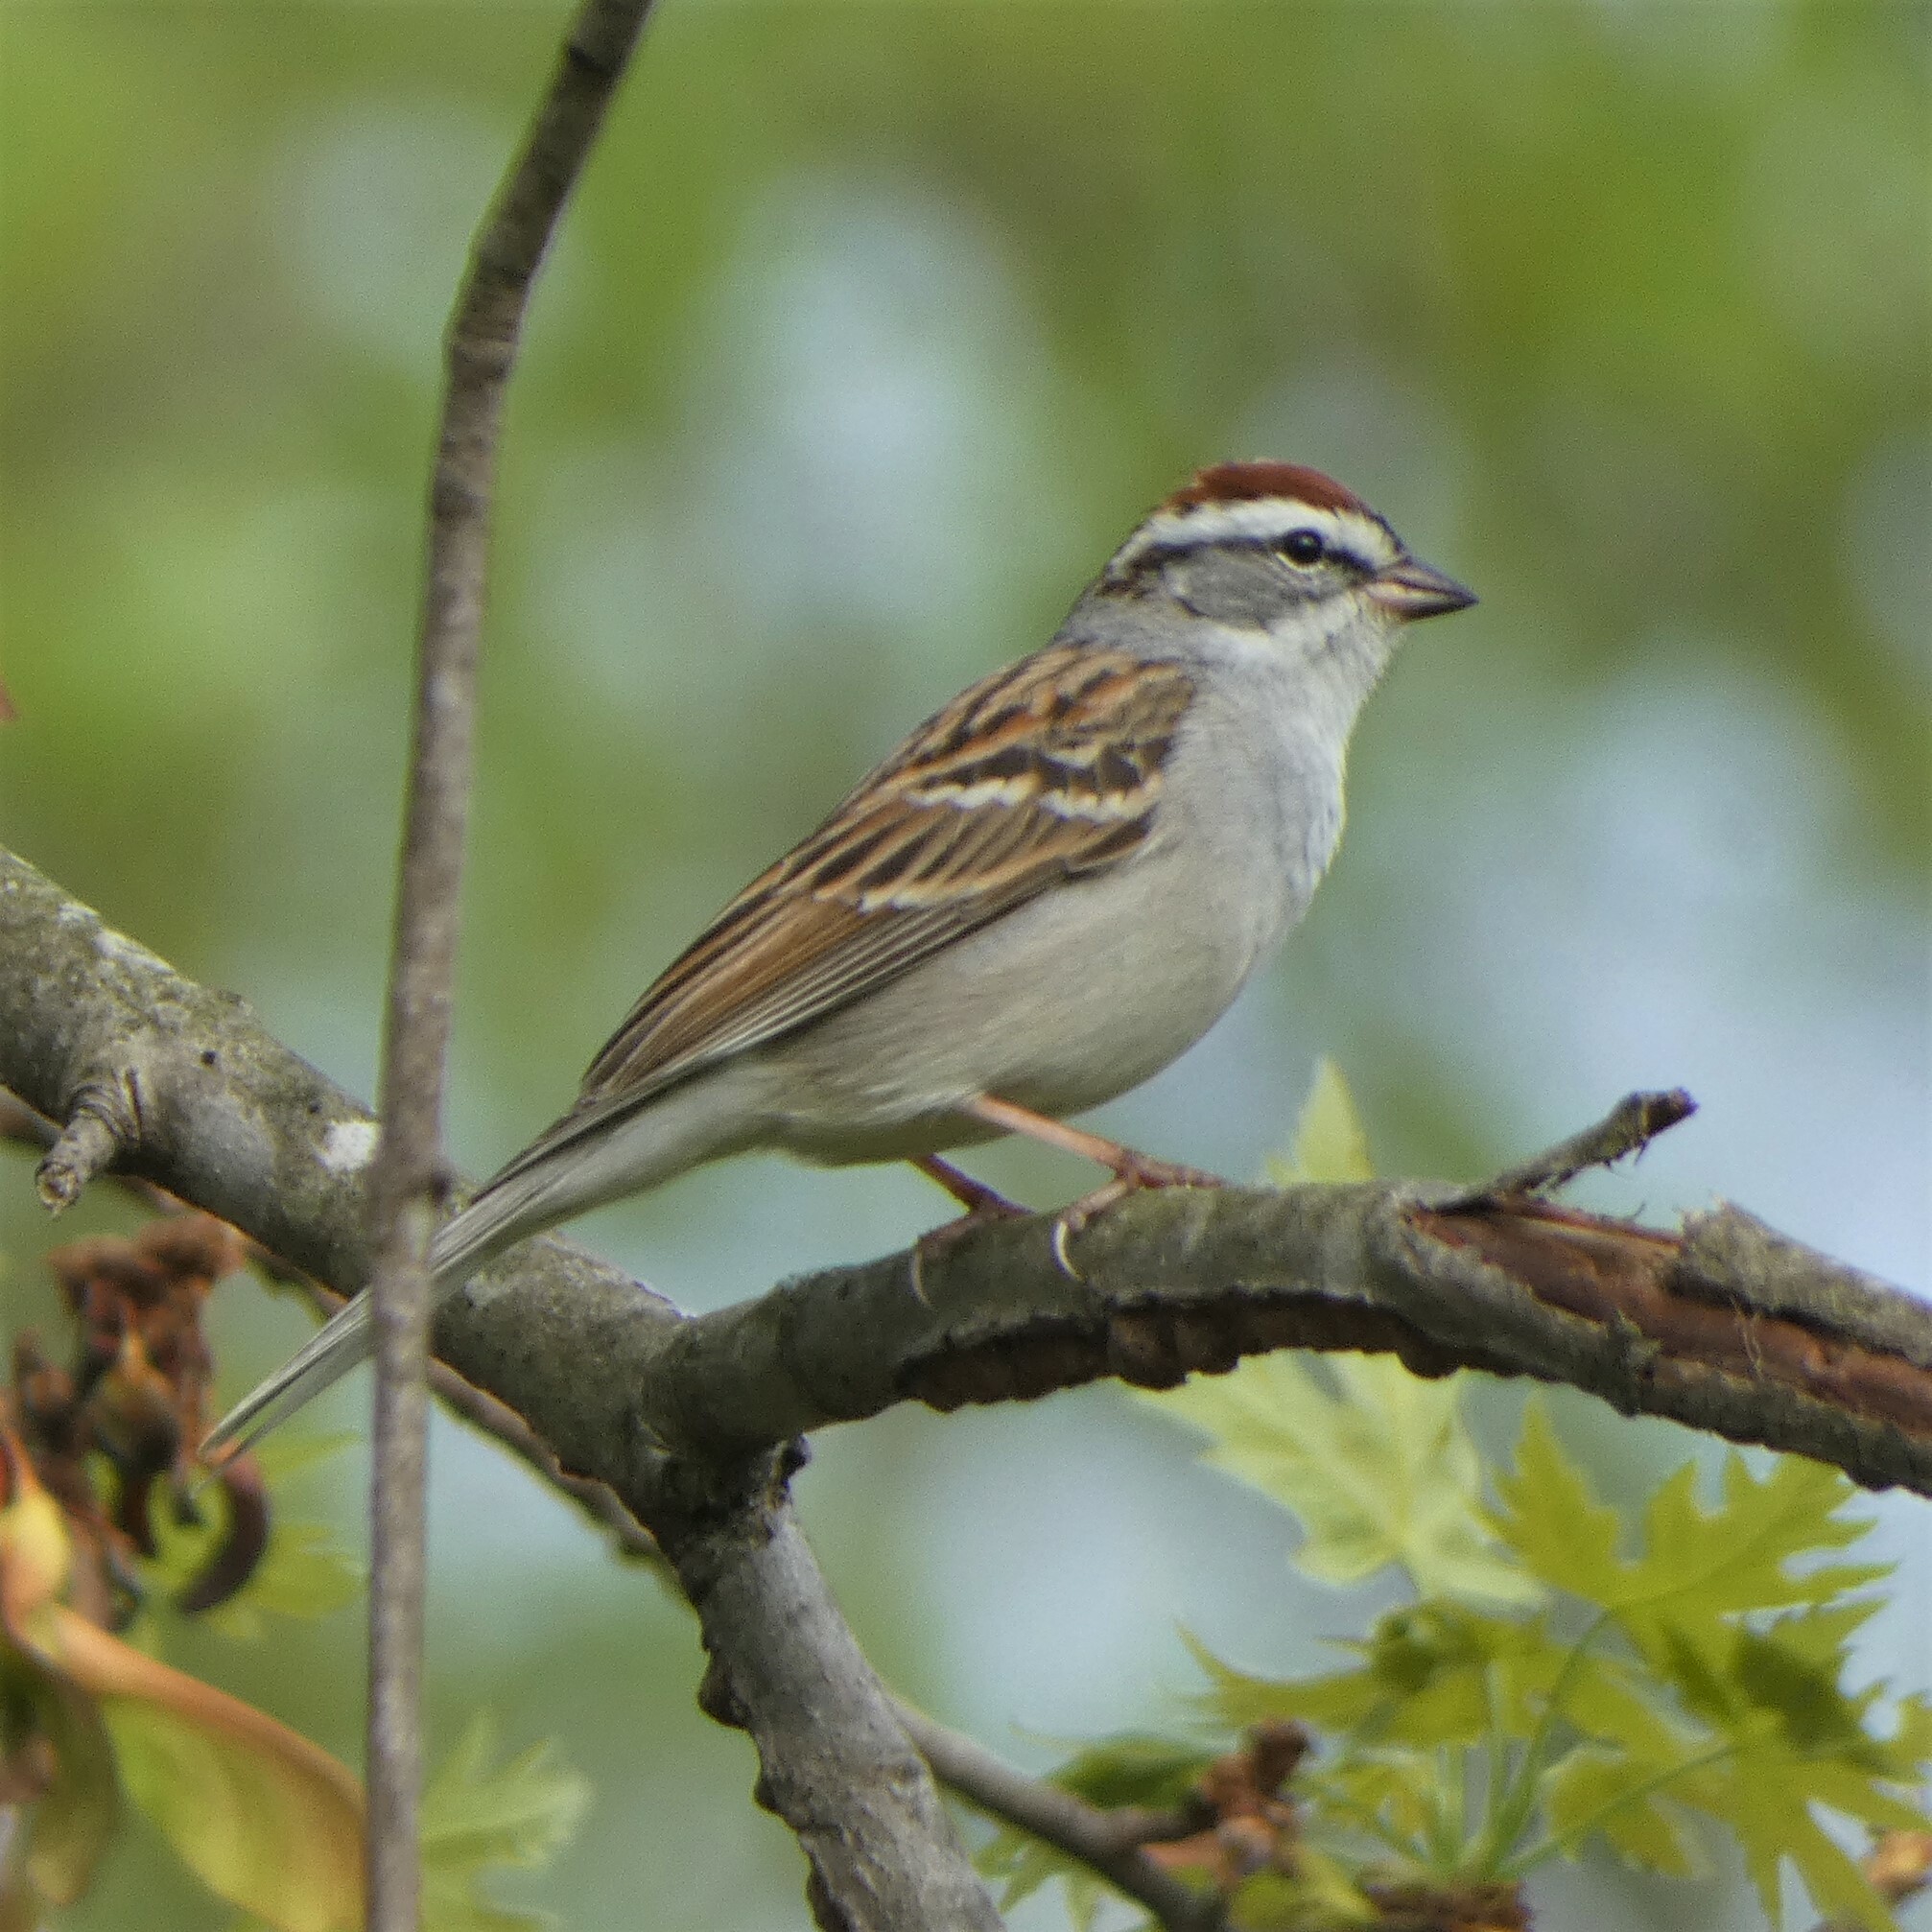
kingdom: Animalia
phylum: Chordata
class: Aves
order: Passeriformes
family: Passerellidae
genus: Spizella
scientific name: Spizella passerina
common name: Chipping sparrow
